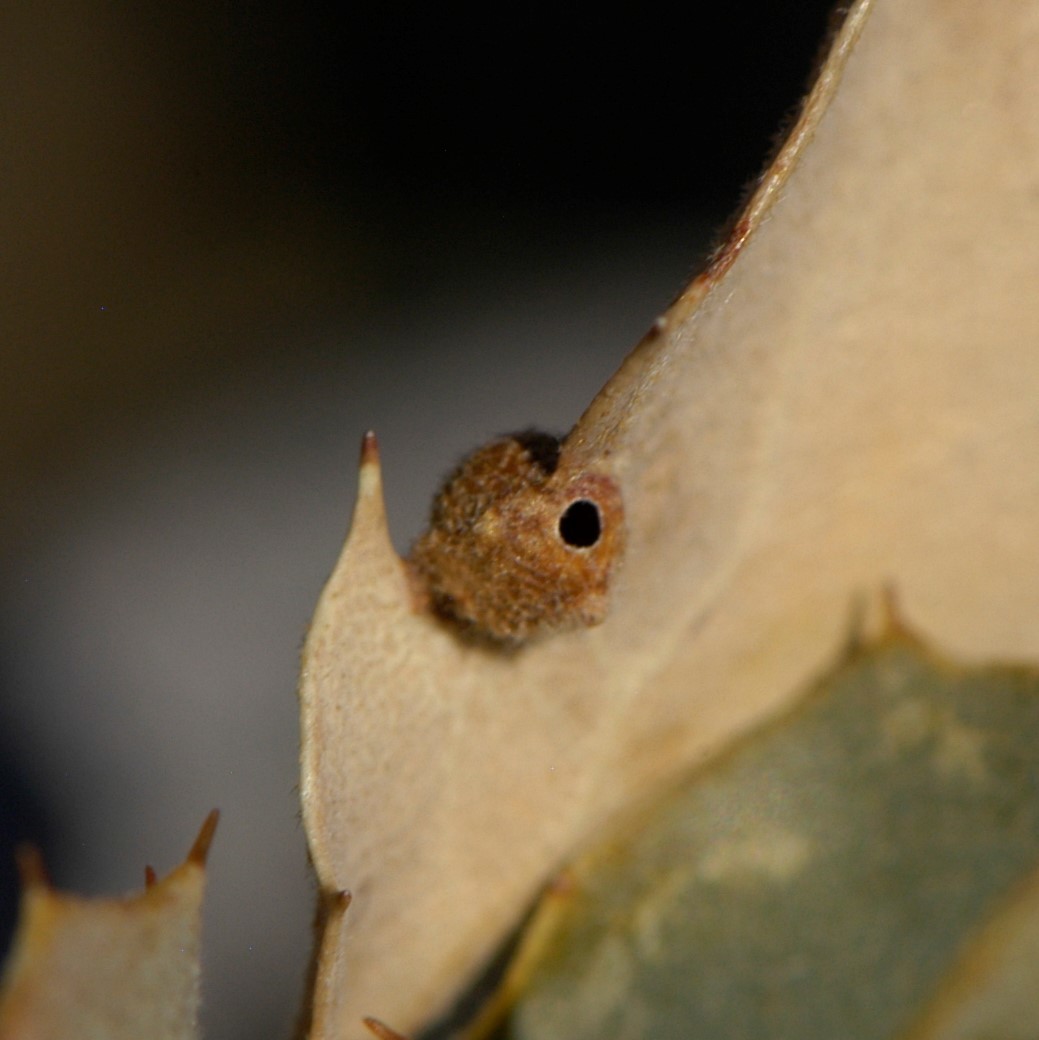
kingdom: Animalia
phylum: Arthropoda
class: Insecta
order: Hymenoptera
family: Cynipidae
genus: Andricus
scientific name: Andricus
